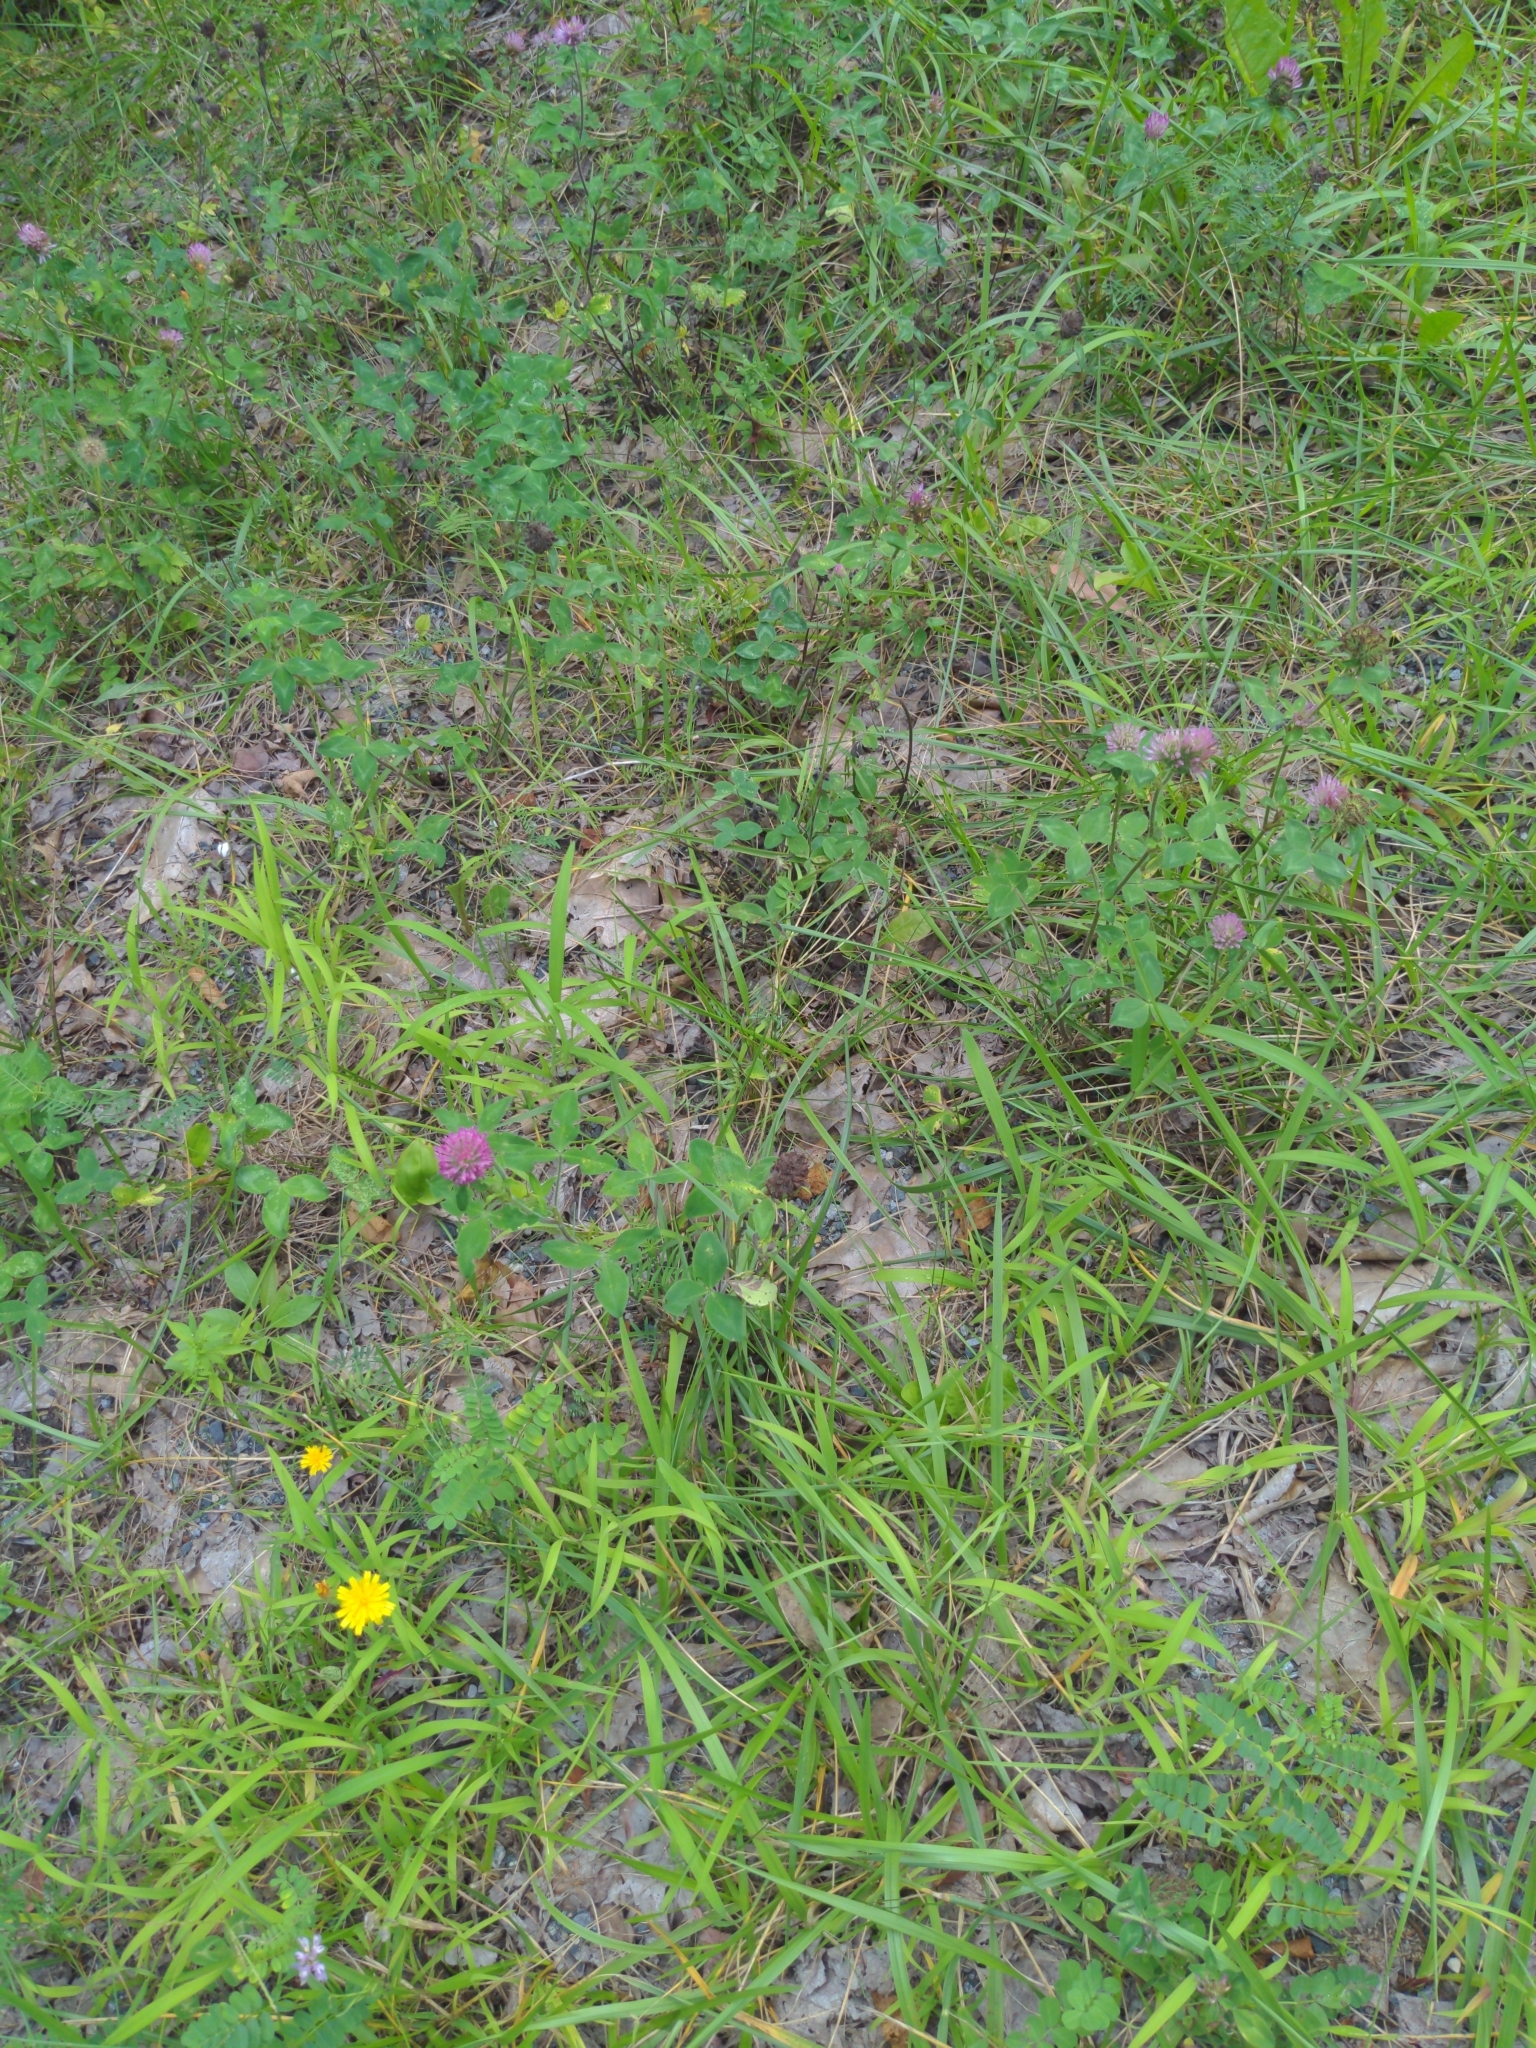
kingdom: Plantae
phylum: Tracheophyta
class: Magnoliopsida
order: Fabales
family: Fabaceae
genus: Trifolium
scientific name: Trifolium pratense
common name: Red clover
